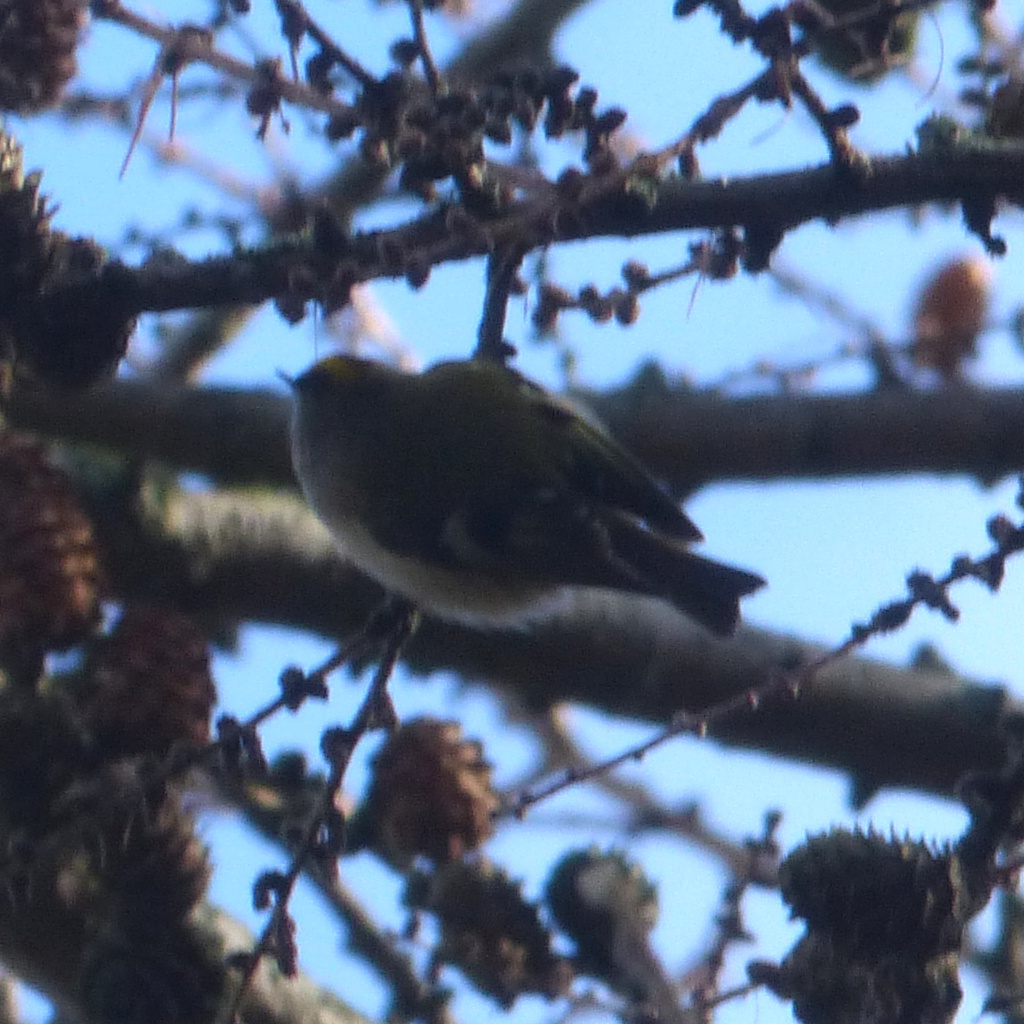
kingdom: Animalia
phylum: Chordata
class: Aves
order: Passeriformes
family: Regulidae
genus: Regulus
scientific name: Regulus regulus
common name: Goldcrest
